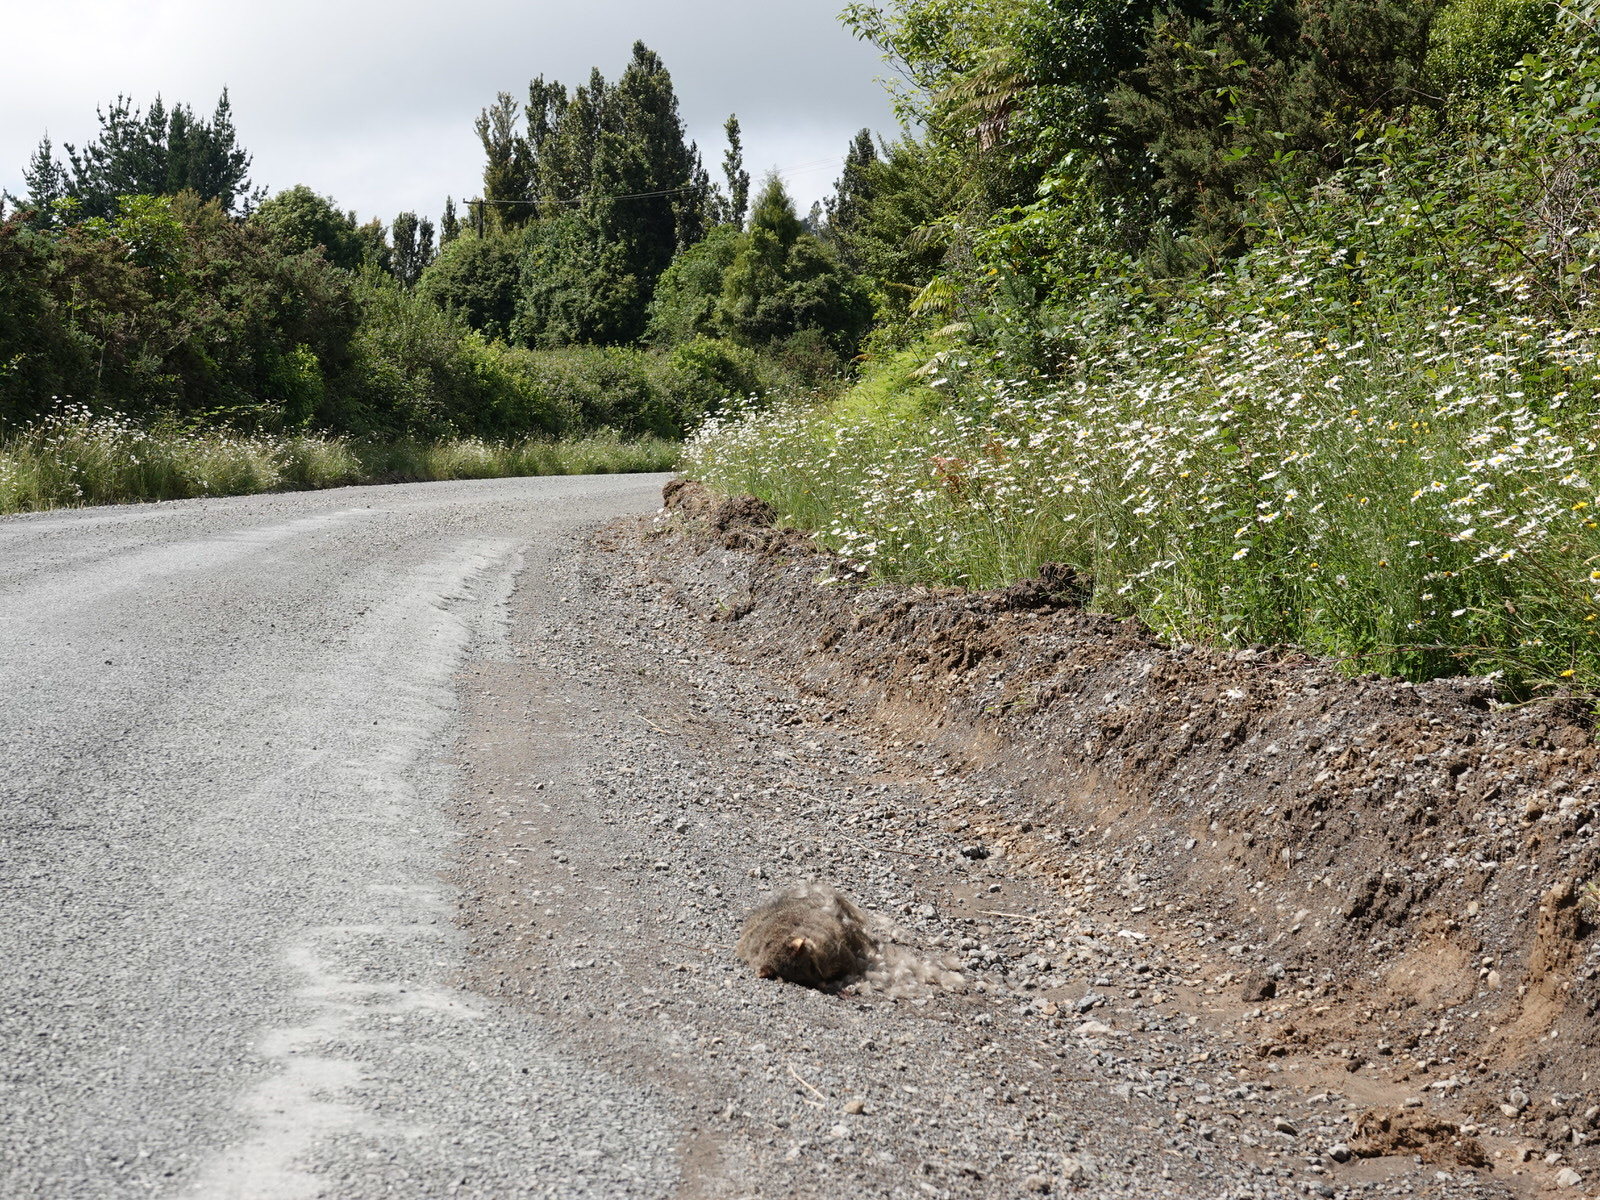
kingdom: Animalia
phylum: Chordata
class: Mammalia
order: Diprotodontia
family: Phalangeridae
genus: Trichosurus
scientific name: Trichosurus vulpecula
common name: Common brushtail
